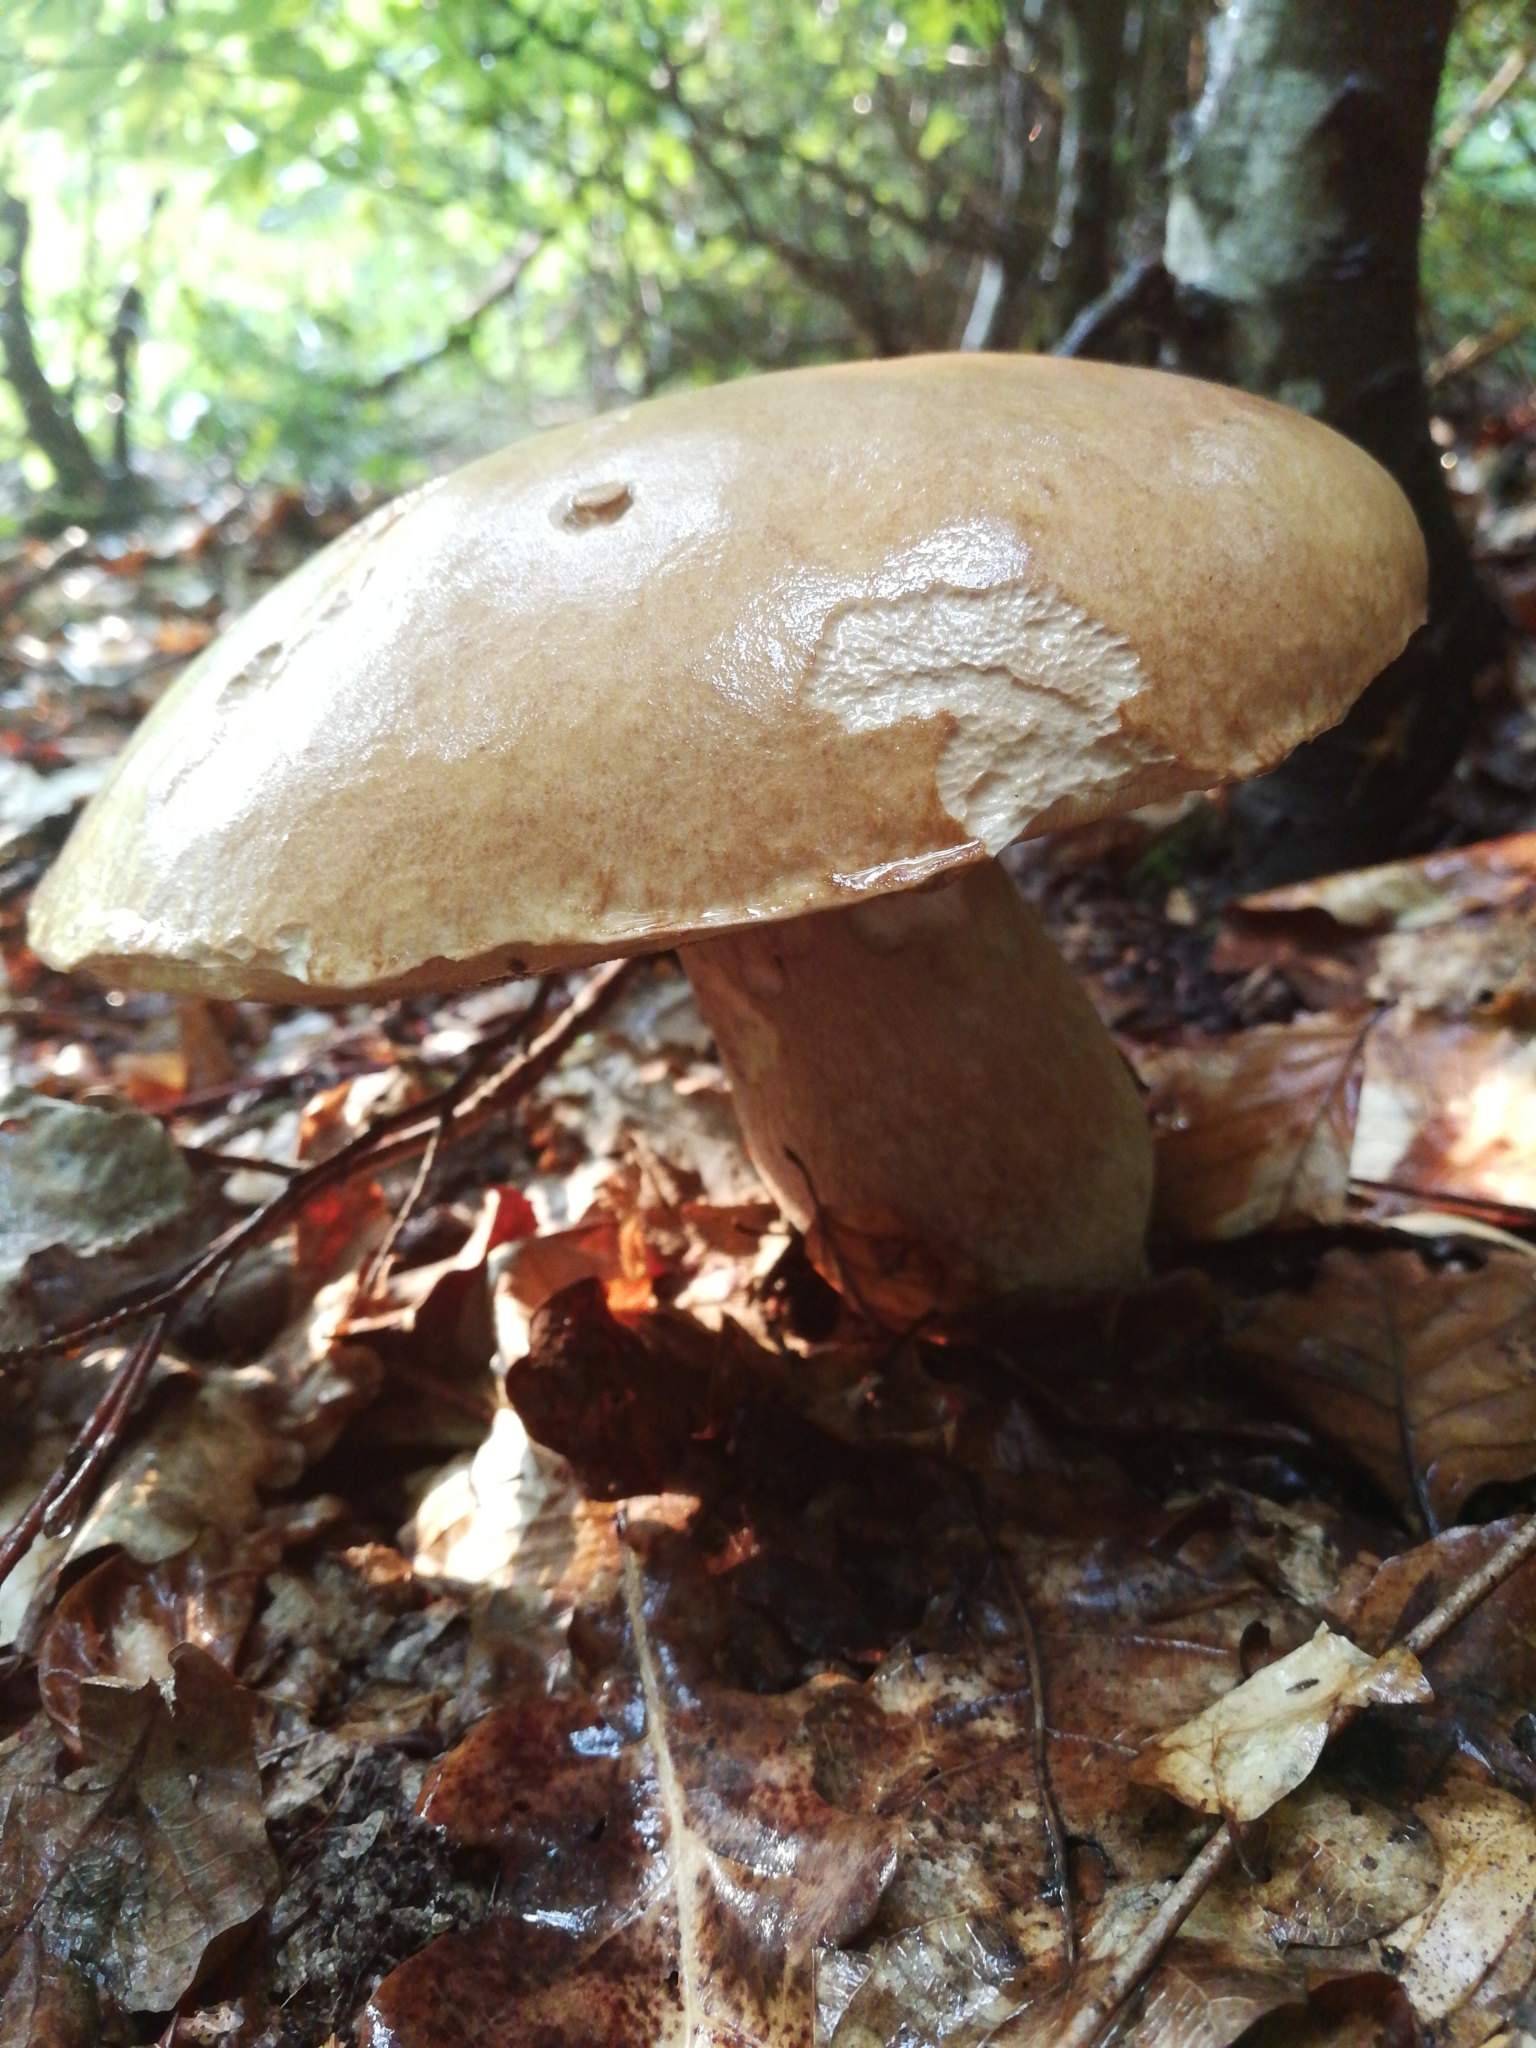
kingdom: Fungi
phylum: Basidiomycota
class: Agaricomycetes
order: Boletales
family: Boletaceae
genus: Boletus
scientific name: Boletus reticulatus
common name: Summer bolete
